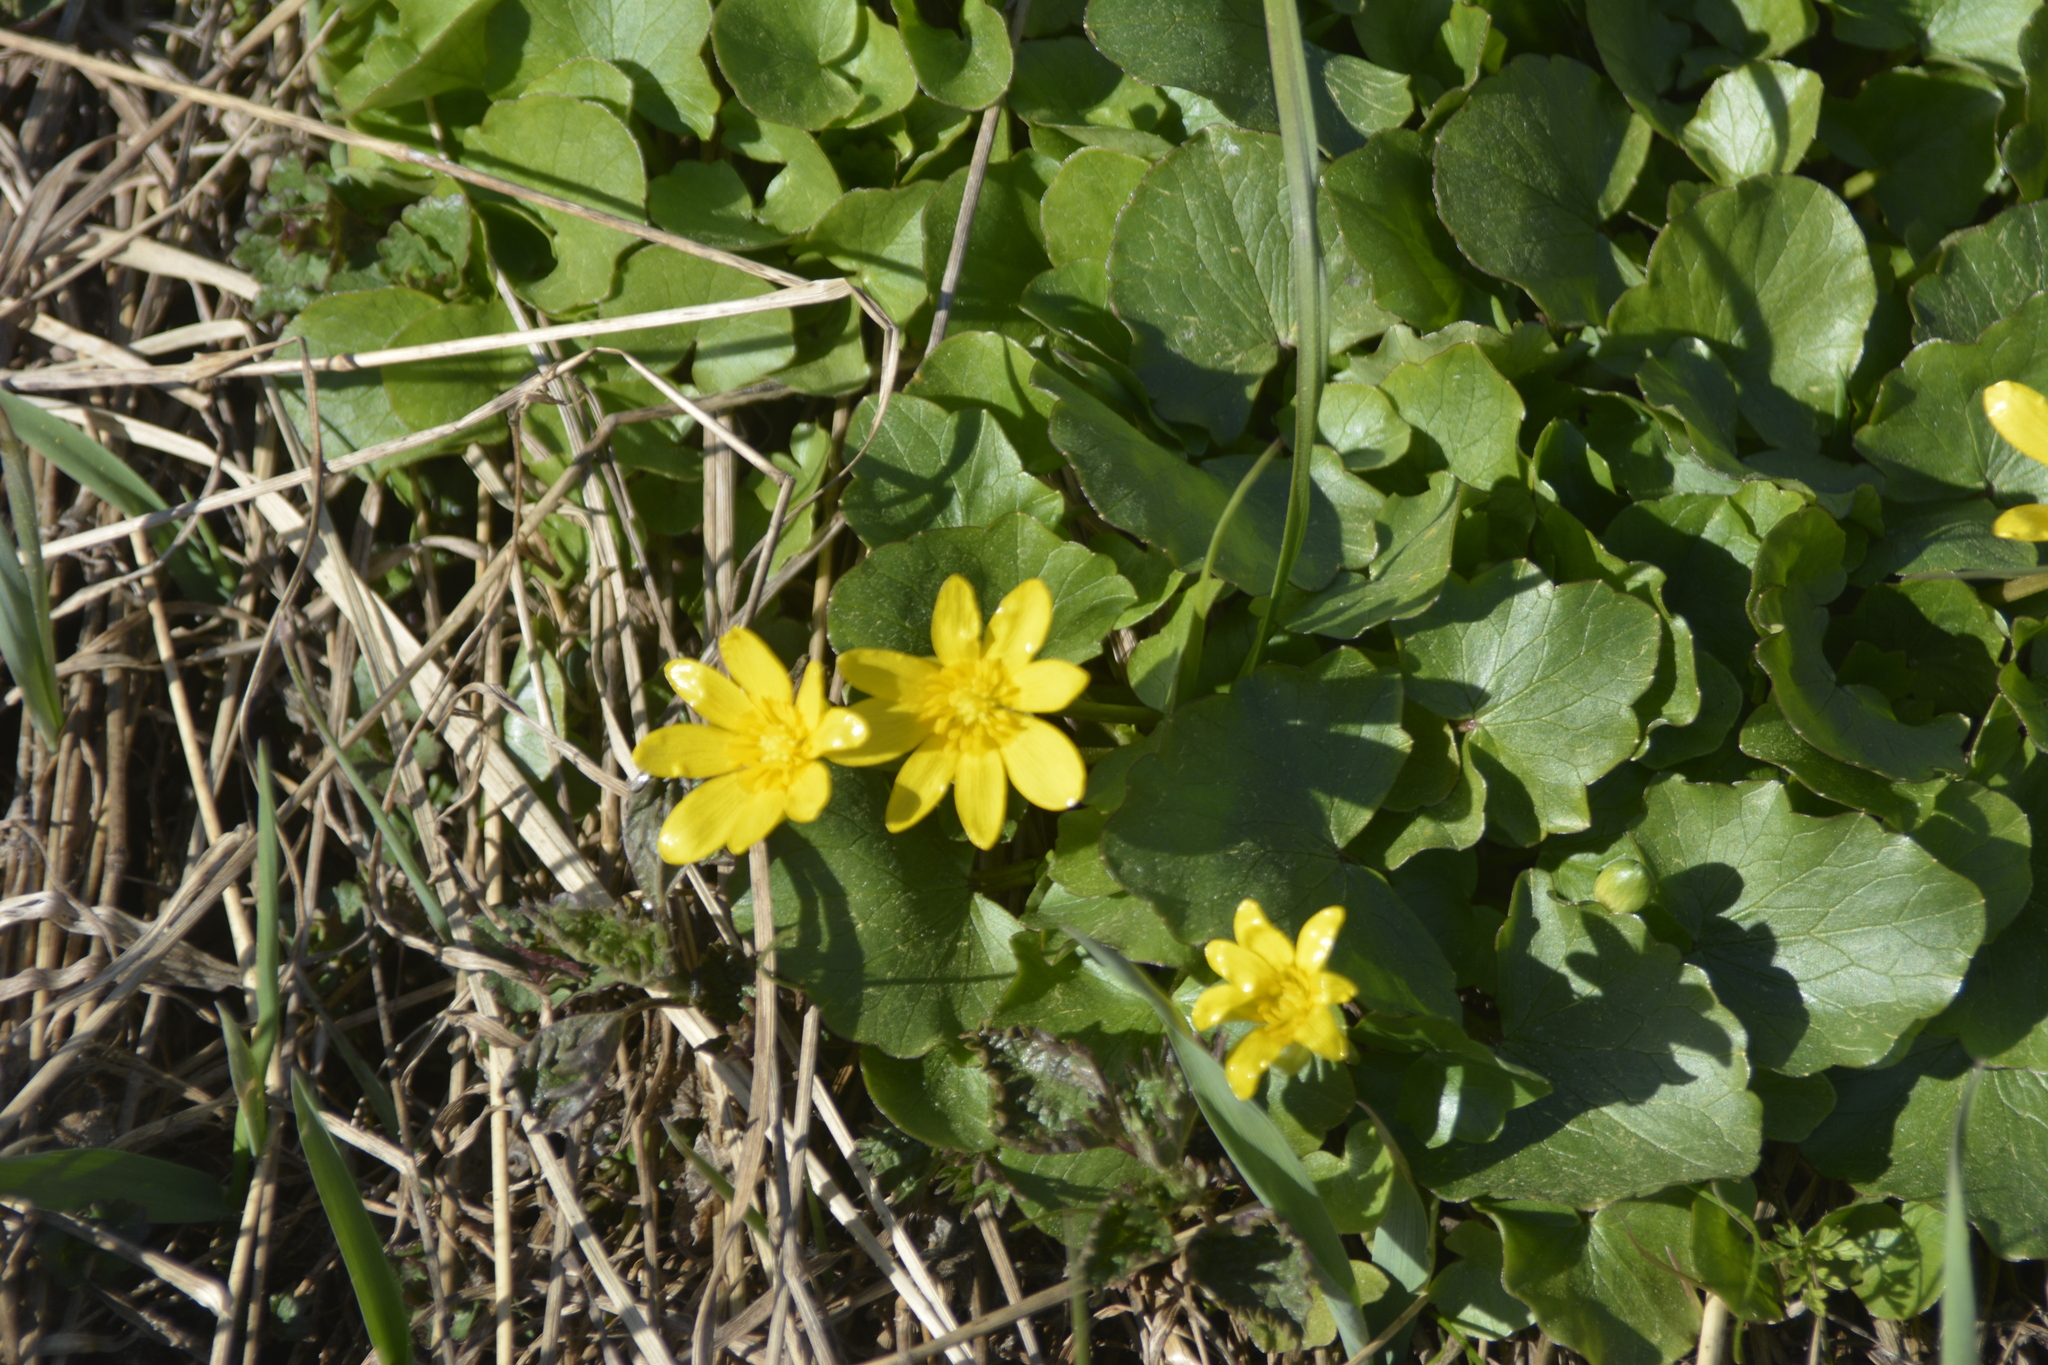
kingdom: Plantae
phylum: Tracheophyta
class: Magnoliopsida
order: Ranunculales
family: Ranunculaceae
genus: Ficaria
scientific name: Ficaria verna
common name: Lesser celandine
